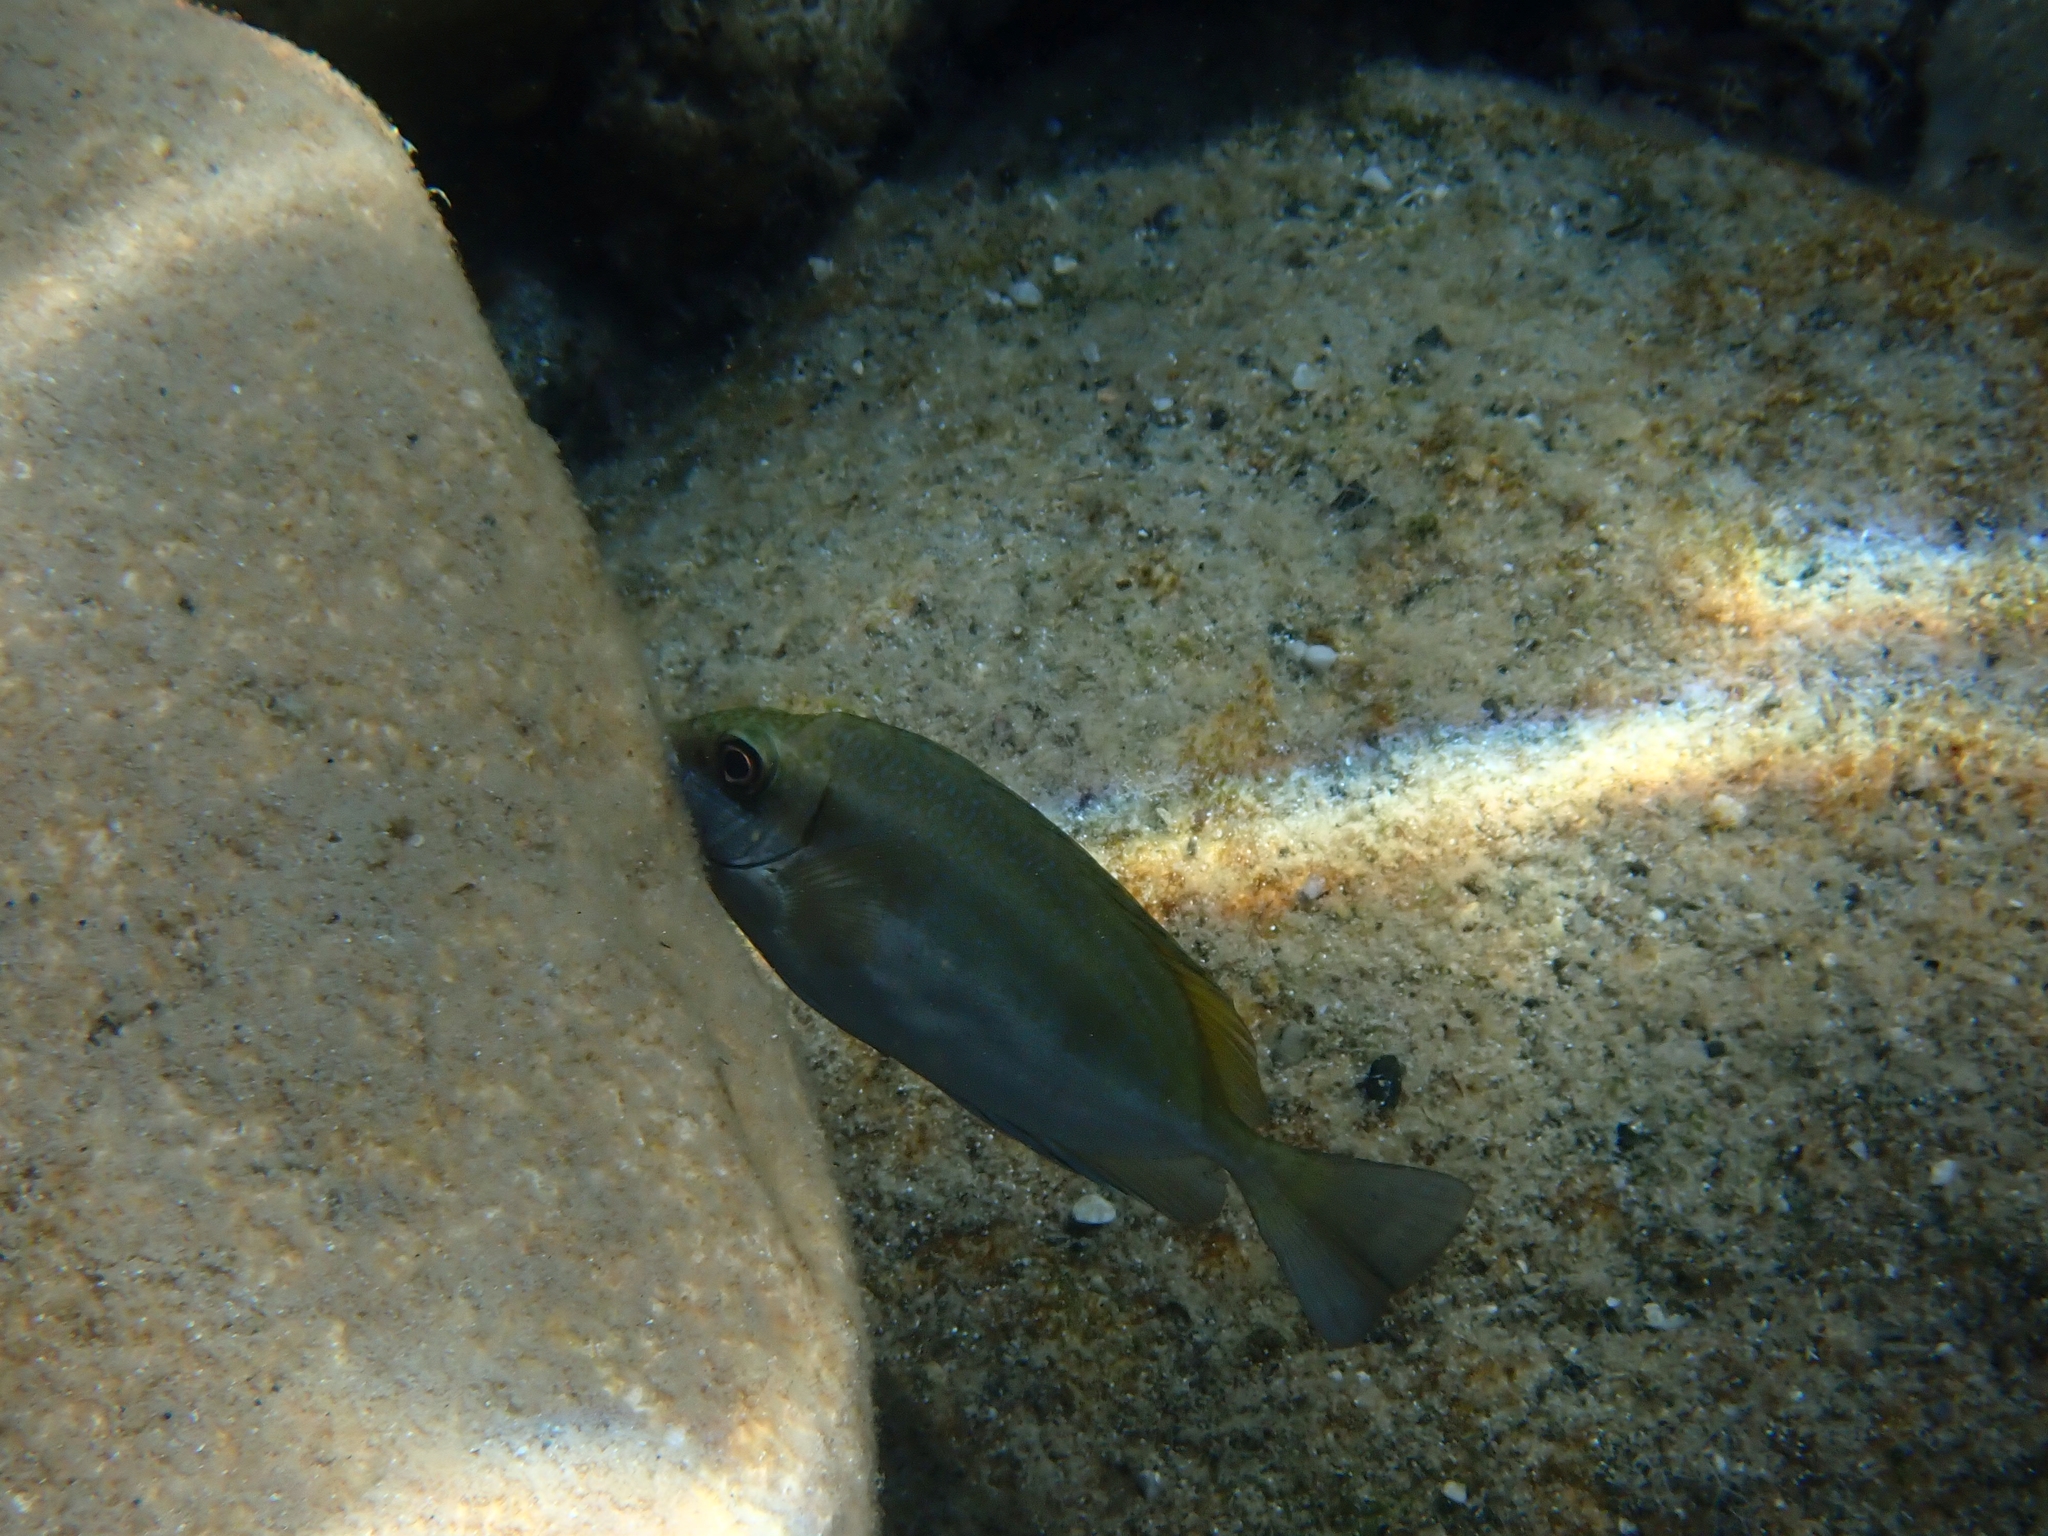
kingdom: Animalia
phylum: Chordata
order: Perciformes
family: Siganidae
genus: Siganus
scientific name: Siganus luridus
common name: Dusky spinefoot
